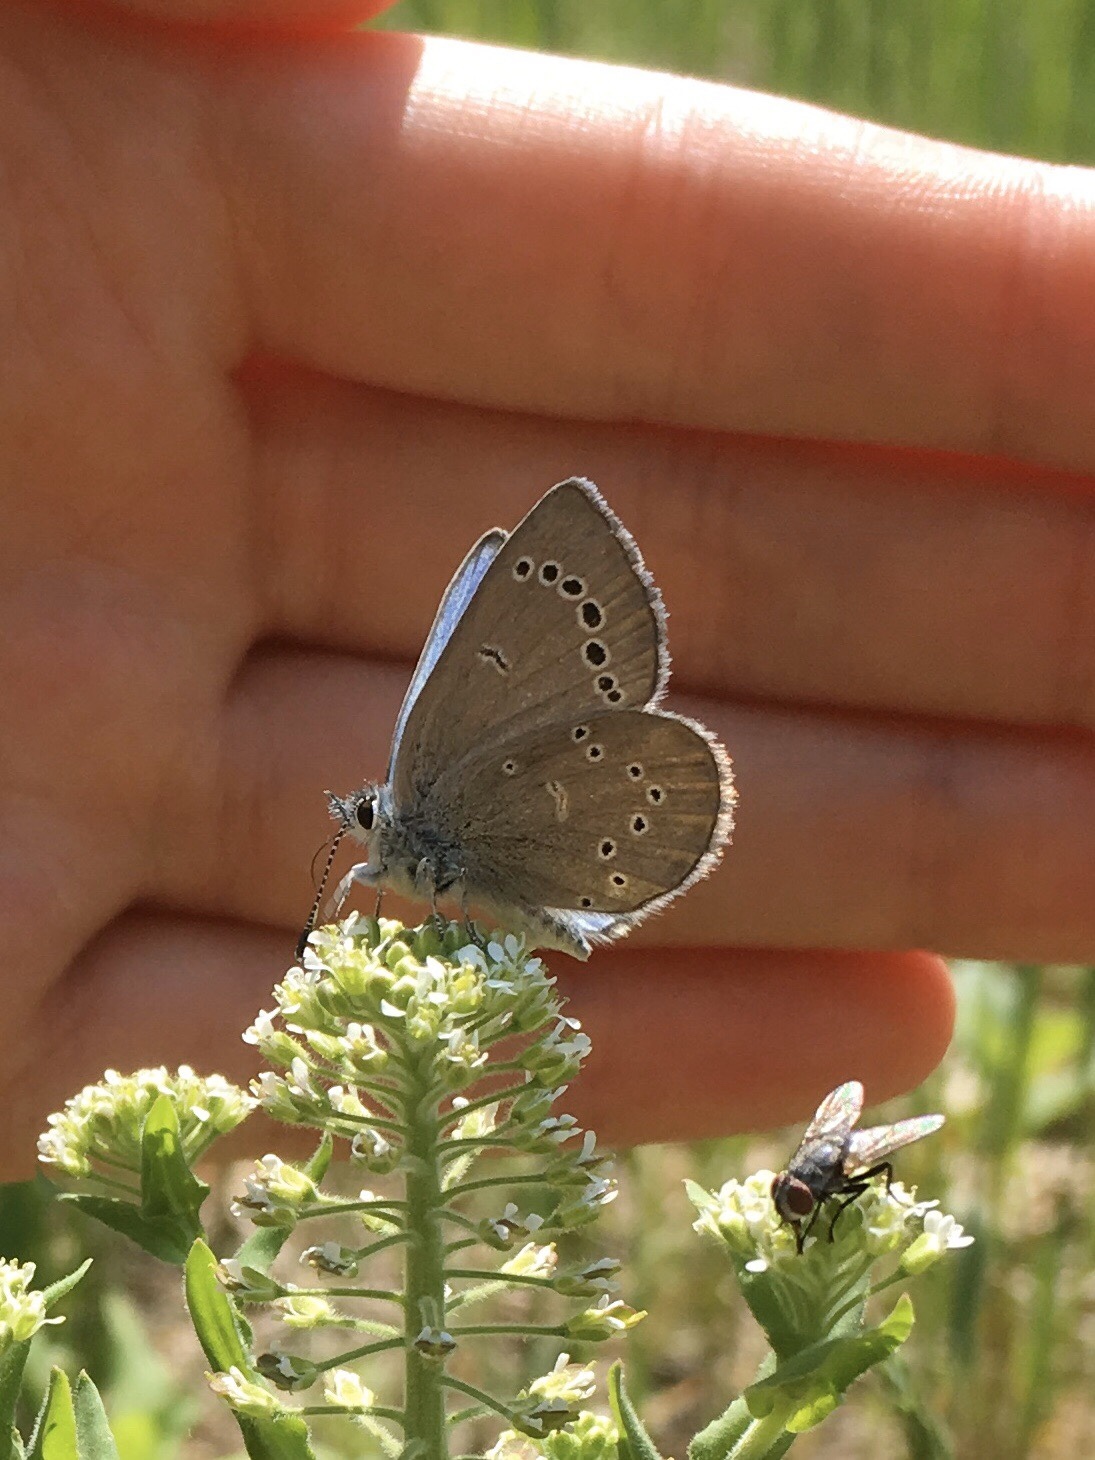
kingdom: Animalia
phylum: Arthropoda
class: Insecta
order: Lepidoptera
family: Lycaenidae
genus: Glaucopsyche
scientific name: Glaucopsyche lygdamus
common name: Silvery blue
